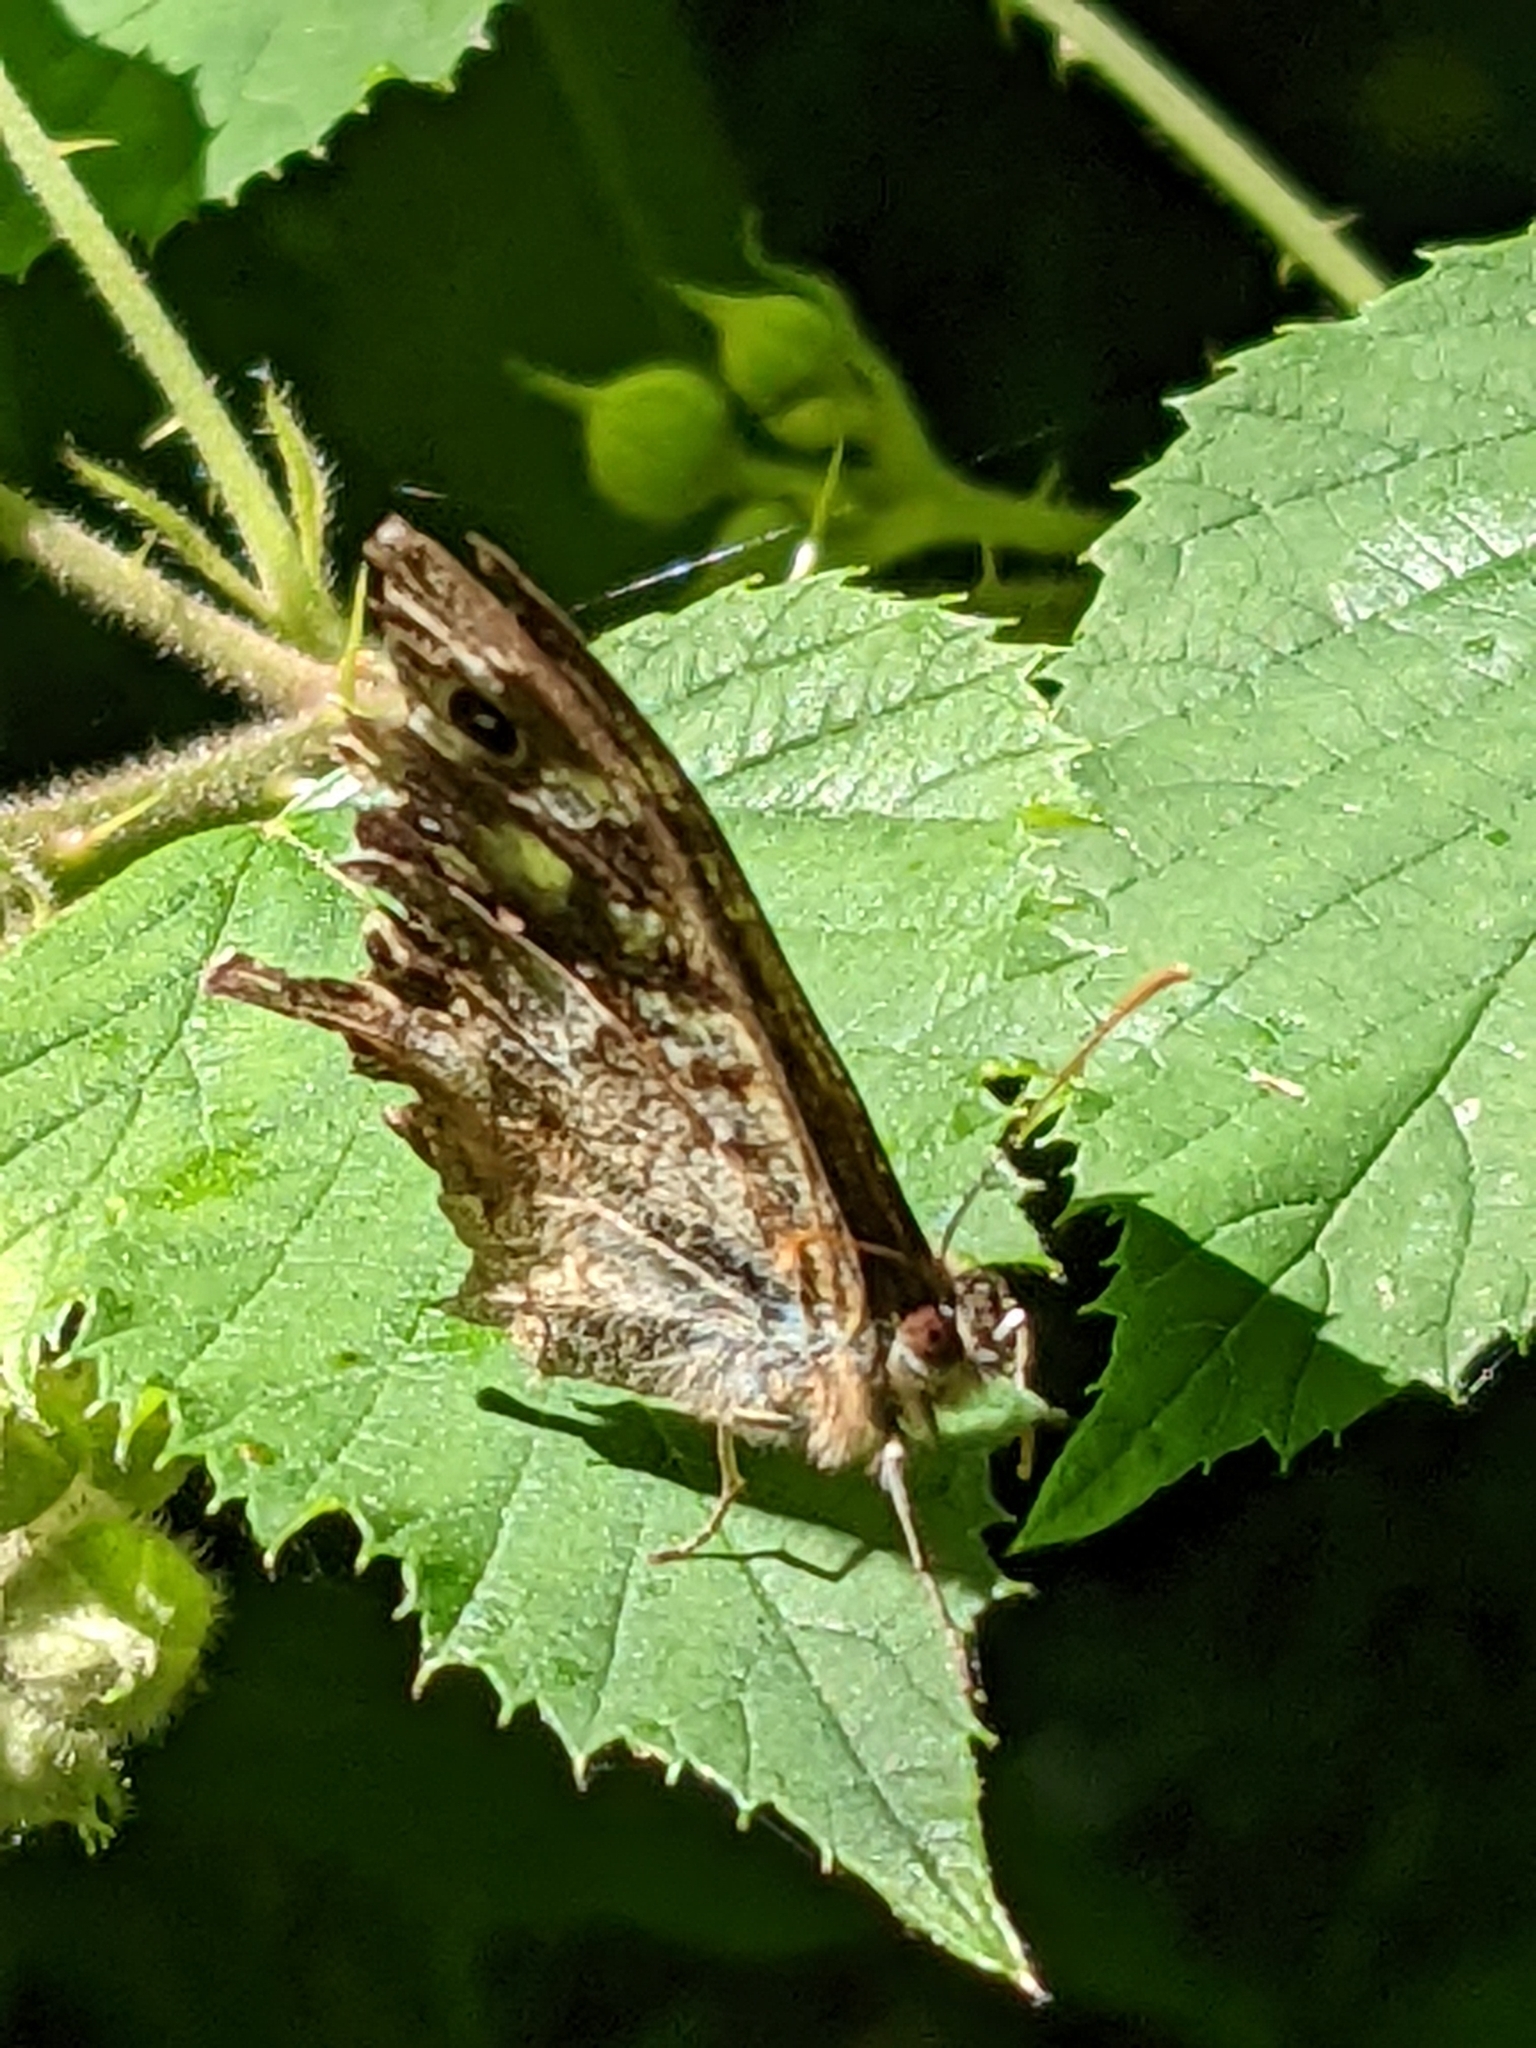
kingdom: Animalia
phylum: Arthropoda
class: Insecta
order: Lepidoptera
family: Nymphalidae
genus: Pararge
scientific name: Pararge aegeria
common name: Speckled wood
